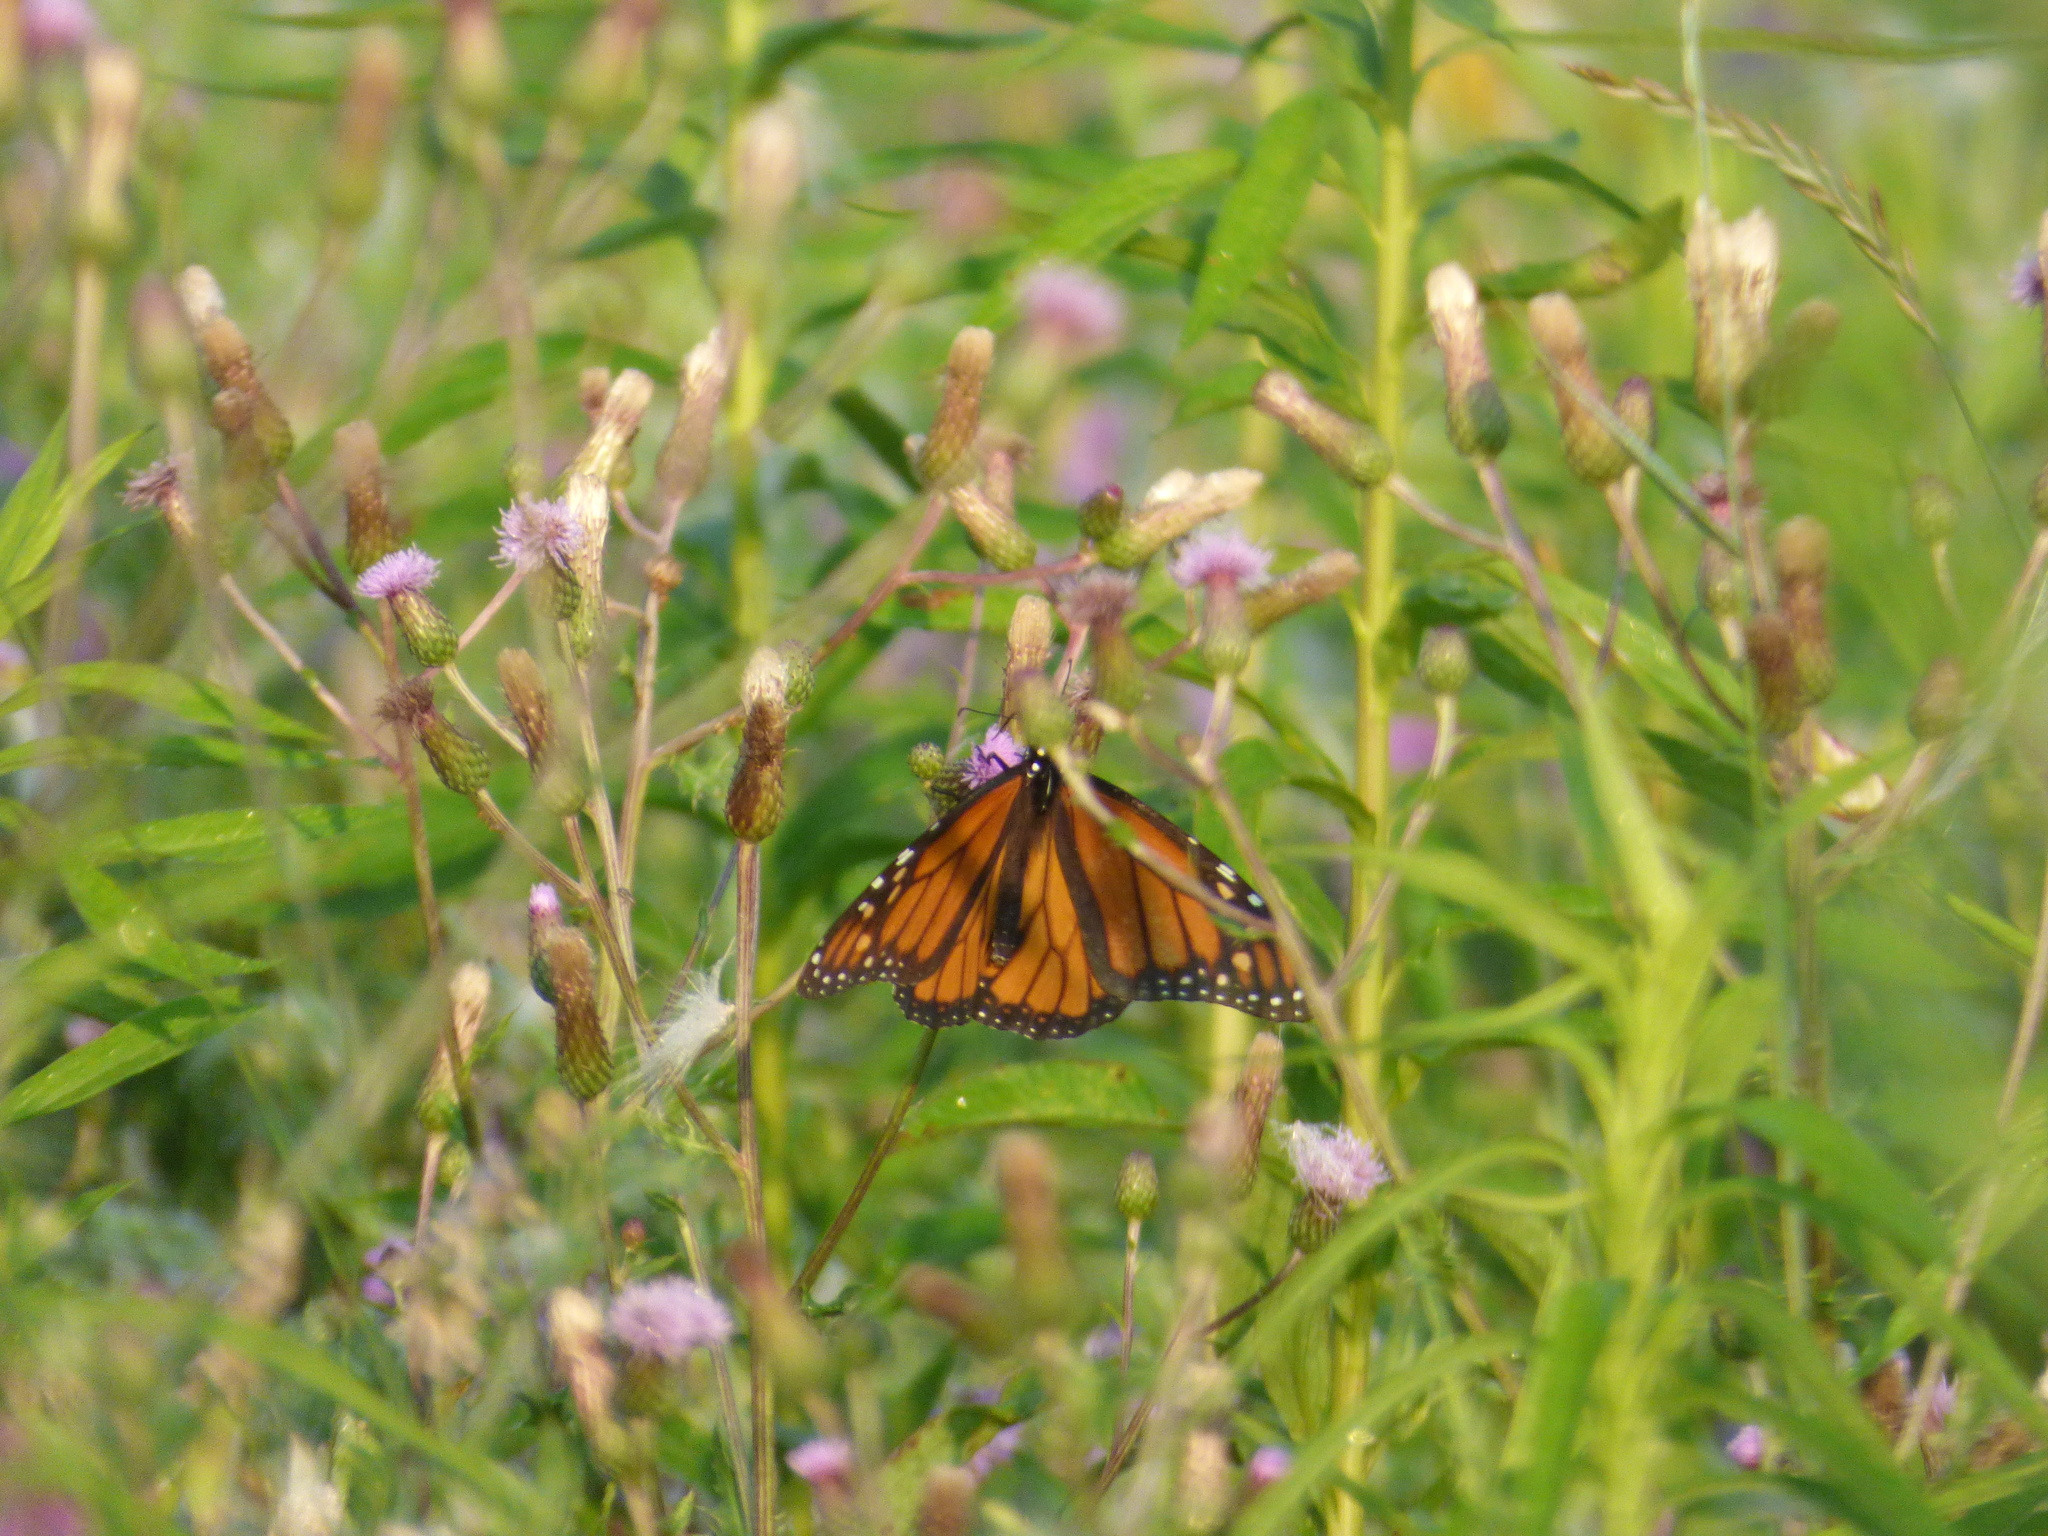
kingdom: Animalia
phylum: Arthropoda
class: Insecta
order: Lepidoptera
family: Nymphalidae
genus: Danaus
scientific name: Danaus plexippus
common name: Monarch
